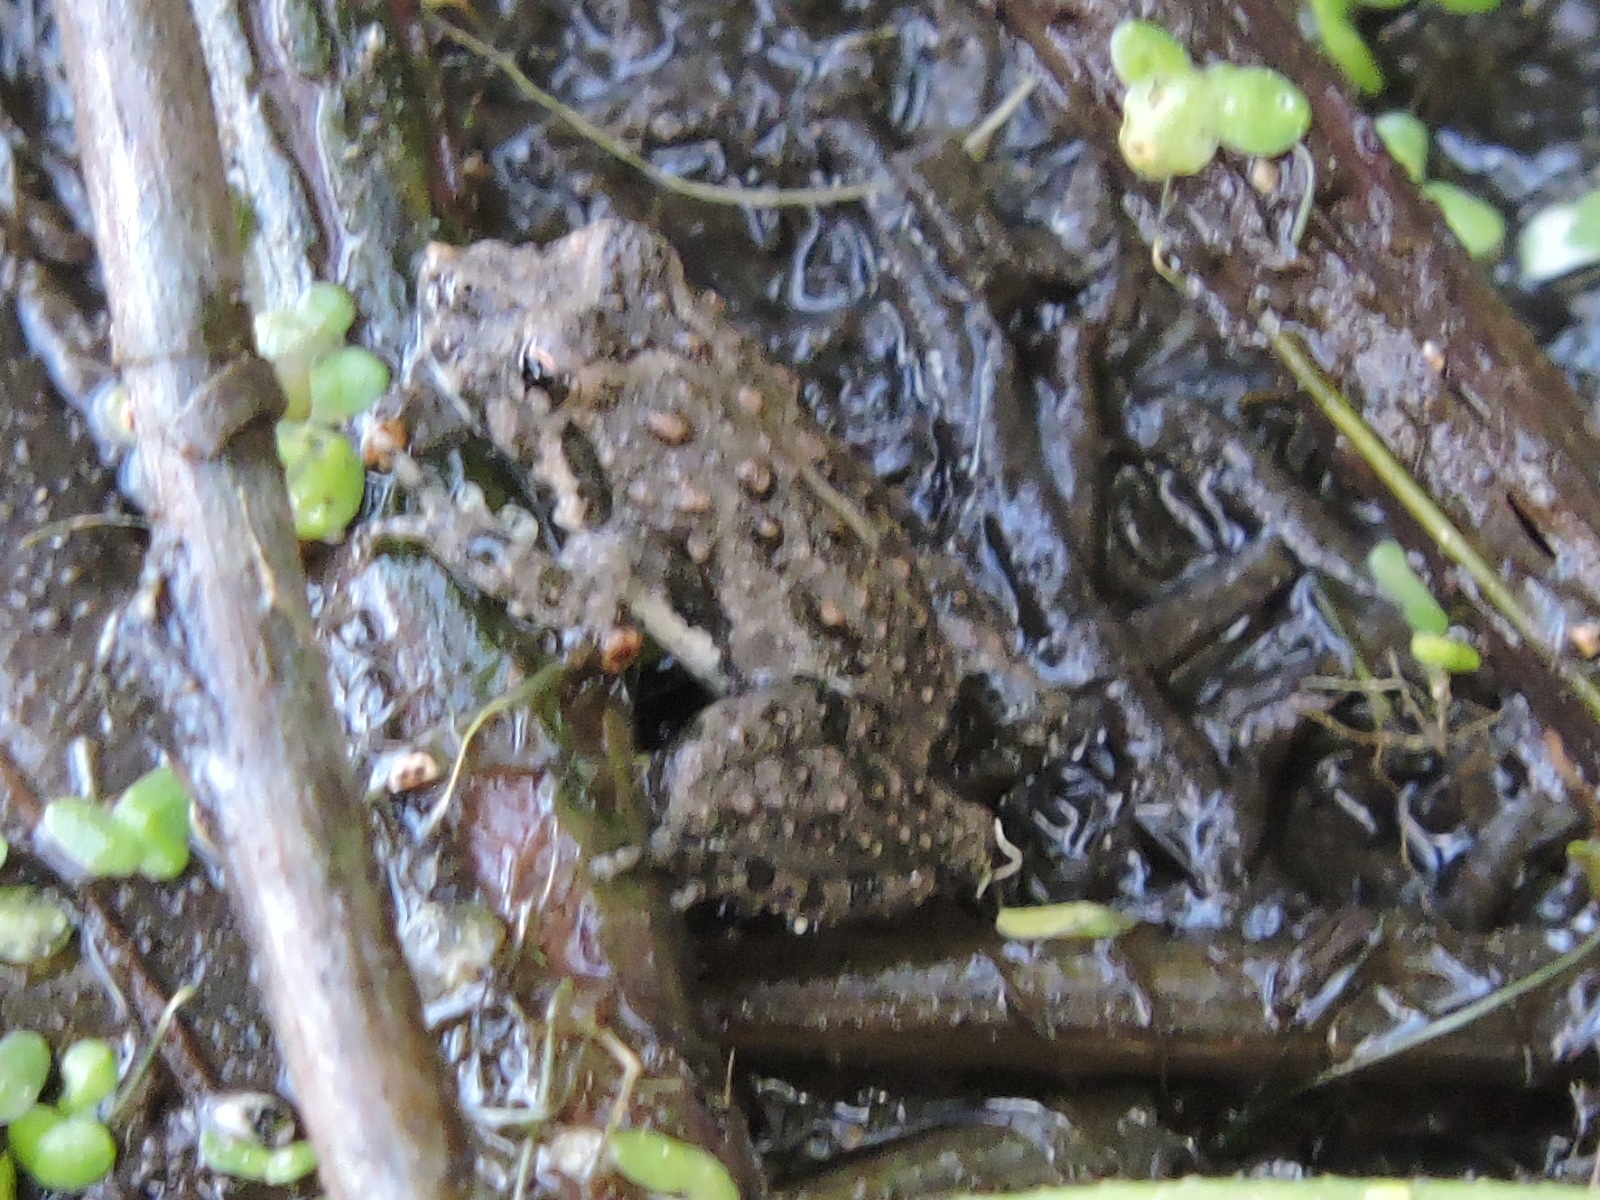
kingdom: Animalia
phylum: Chordata
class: Amphibia
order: Anura
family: Hylidae
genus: Acris
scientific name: Acris blanchardi
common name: Blanchard's cricket frog
